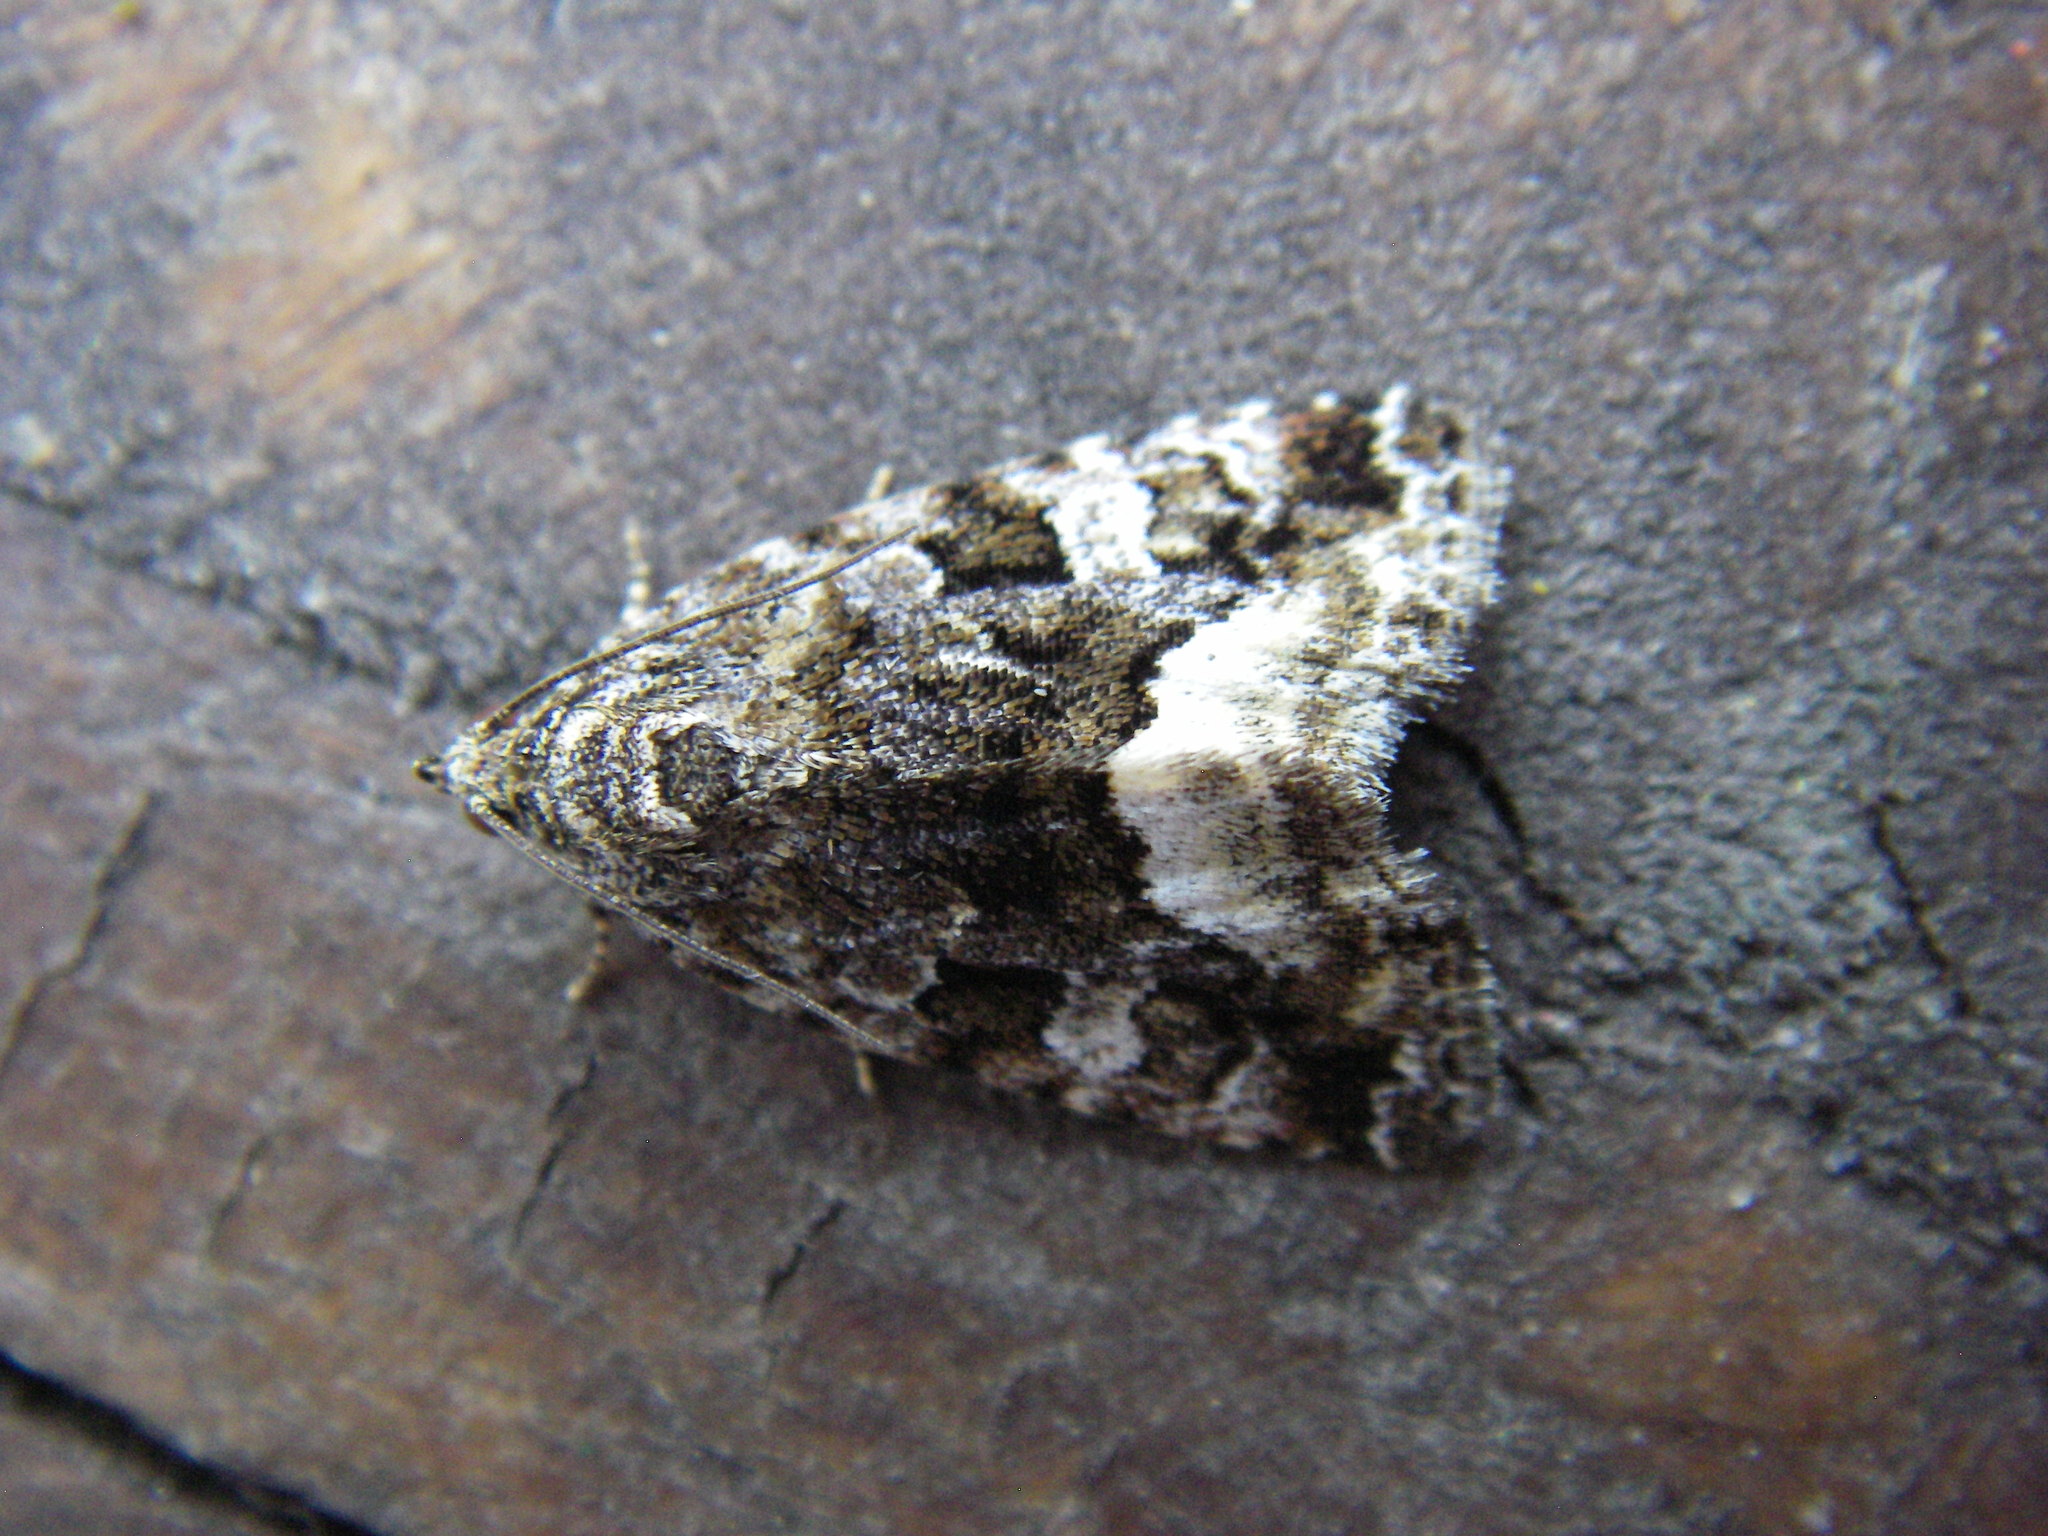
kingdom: Animalia
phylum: Arthropoda
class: Insecta
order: Lepidoptera
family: Noctuidae
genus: Deltote
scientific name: Deltote pygarga
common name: Marbled white spot
